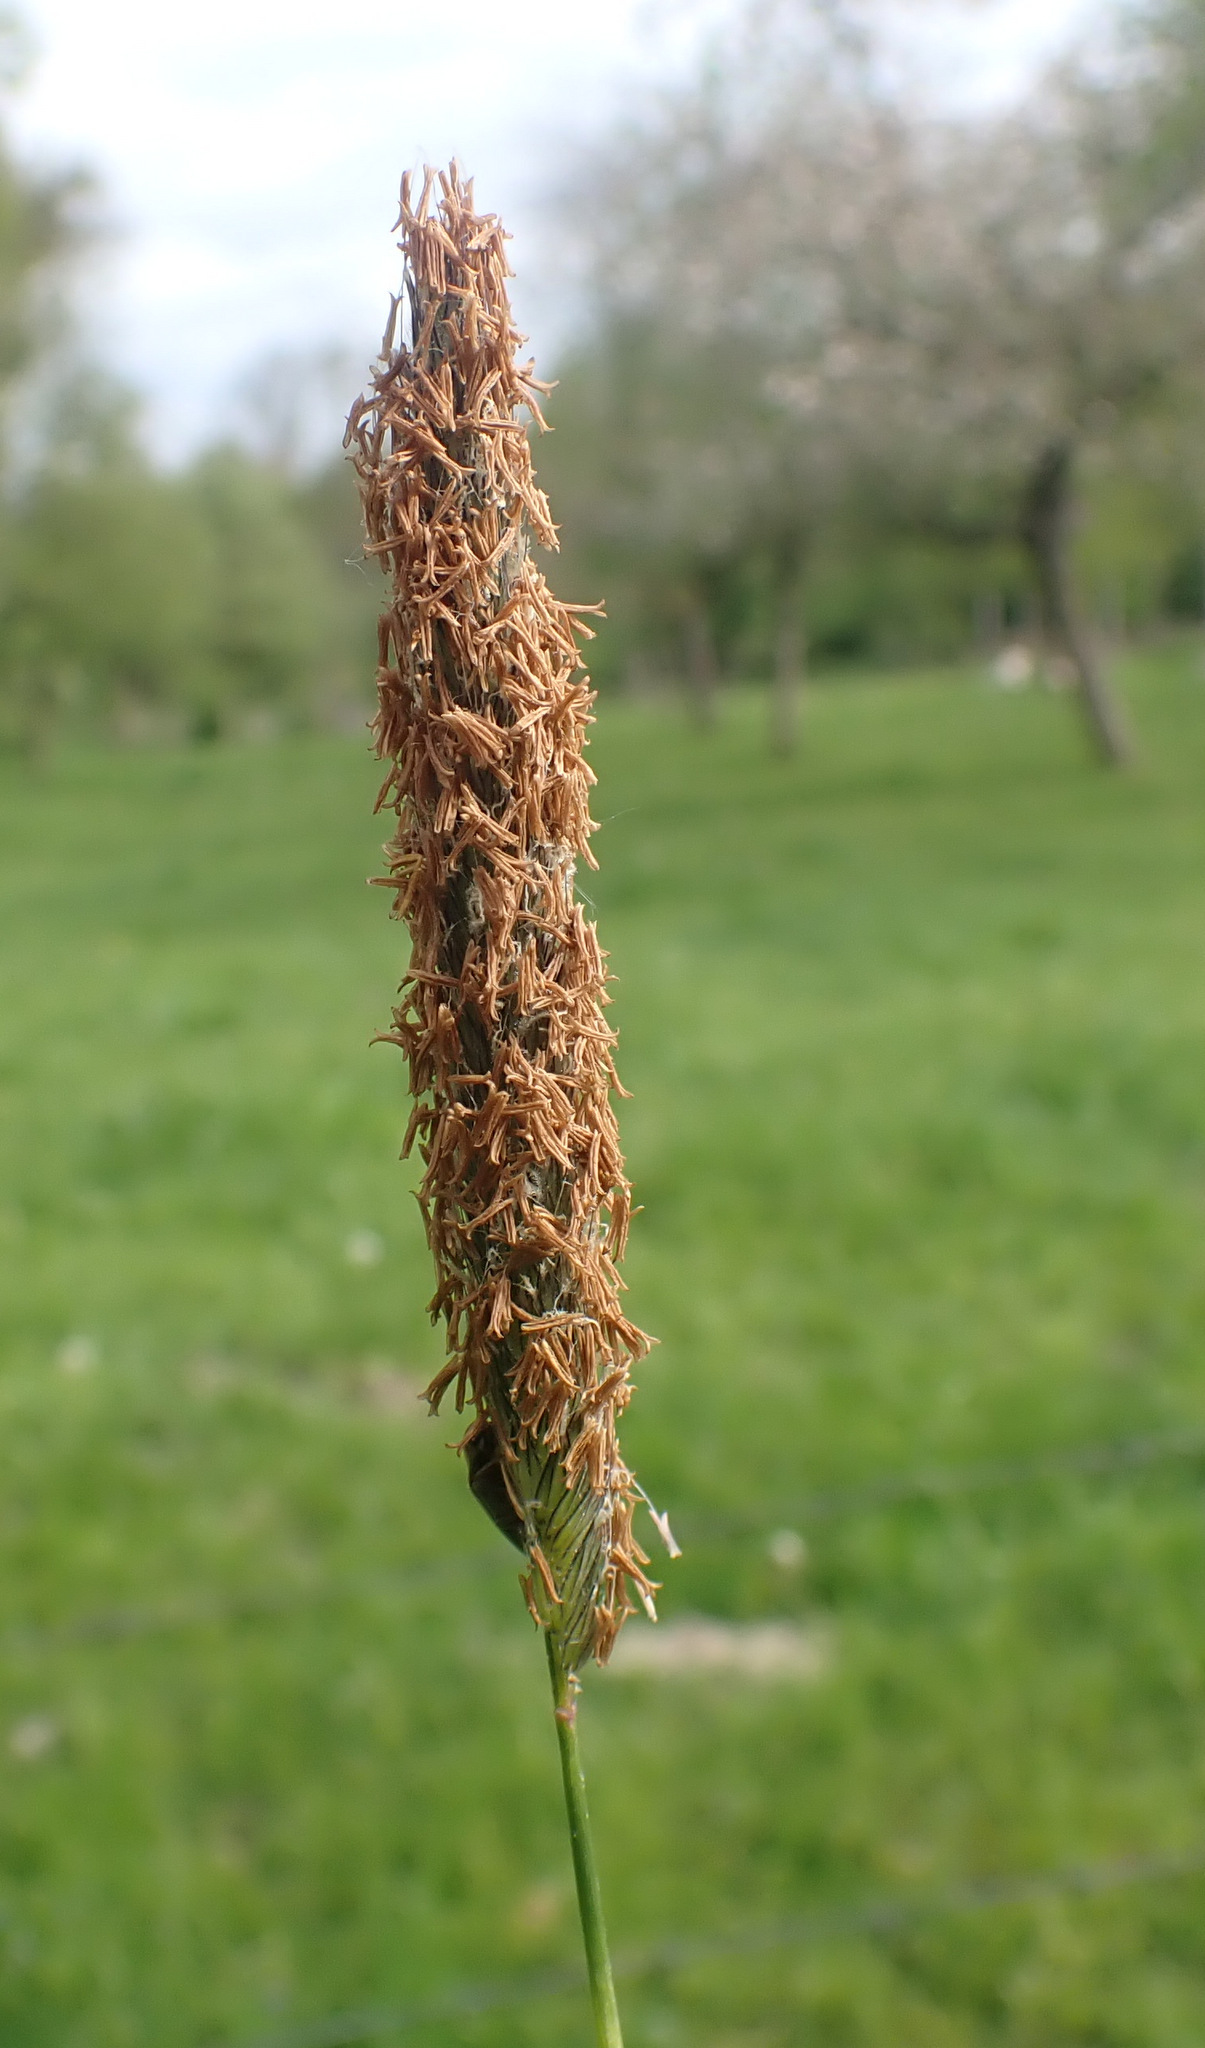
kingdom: Plantae
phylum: Tracheophyta
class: Liliopsida
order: Poales
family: Poaceae
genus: Alopecurus
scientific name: Alopecurus pratensis
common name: Meadow foxtail
